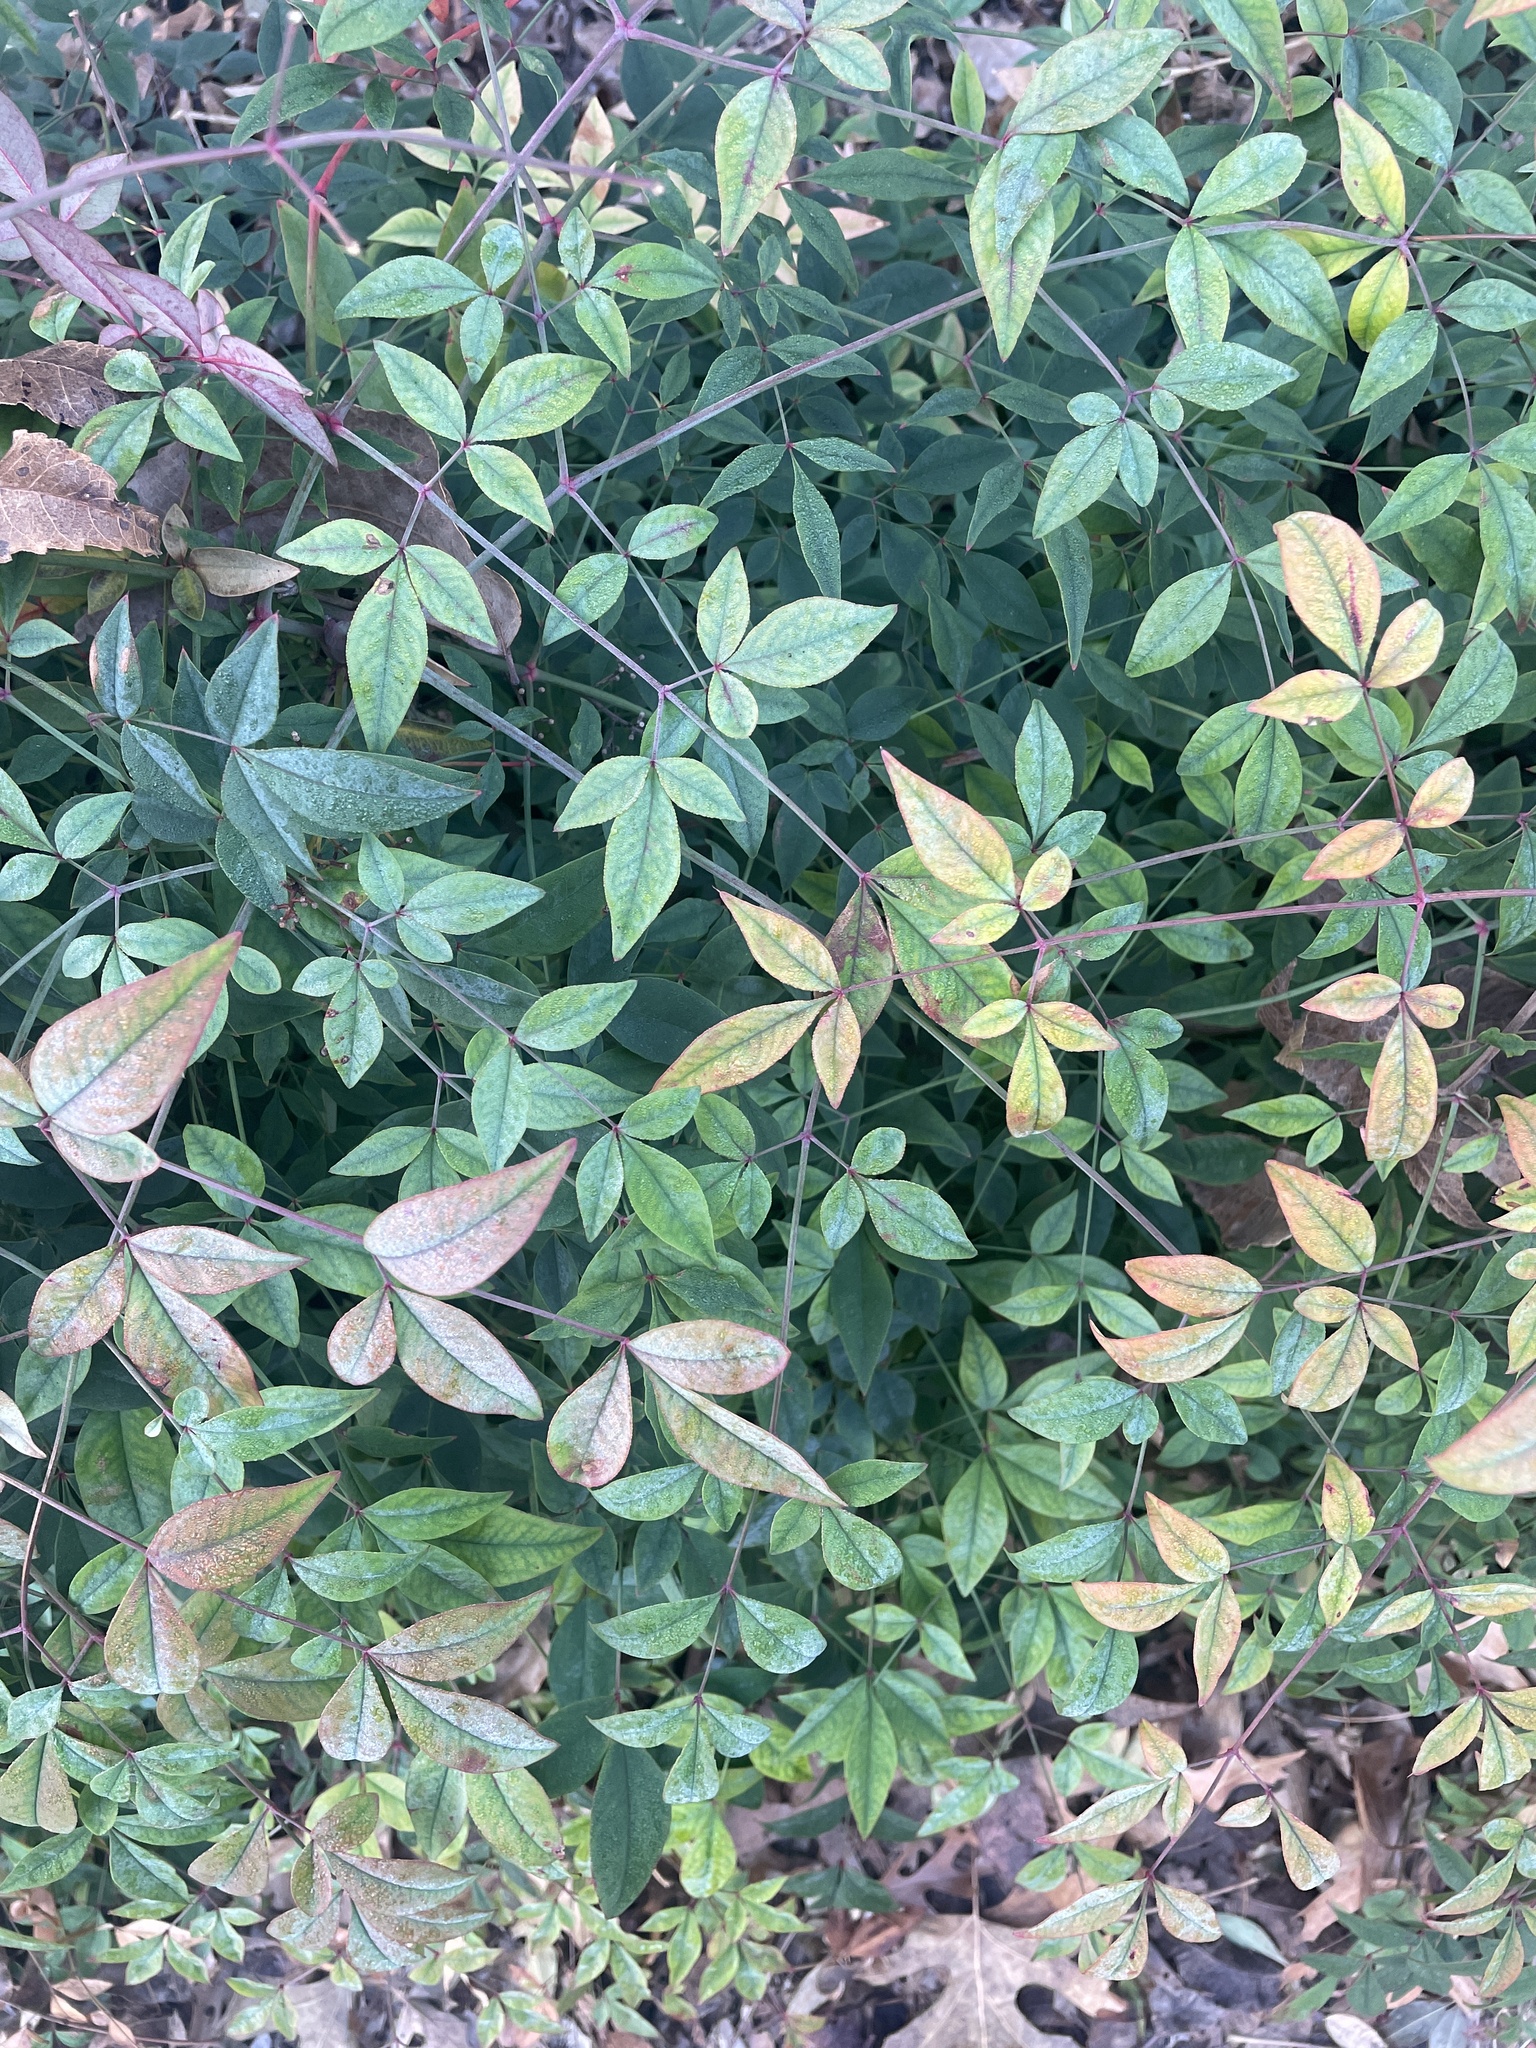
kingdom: Plantae
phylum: Tracheophyta
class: Magnoliopsida
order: Ranunculales
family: Berberidaceae
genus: Nandina
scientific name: Nandina domestica
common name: Sacred bamboo
